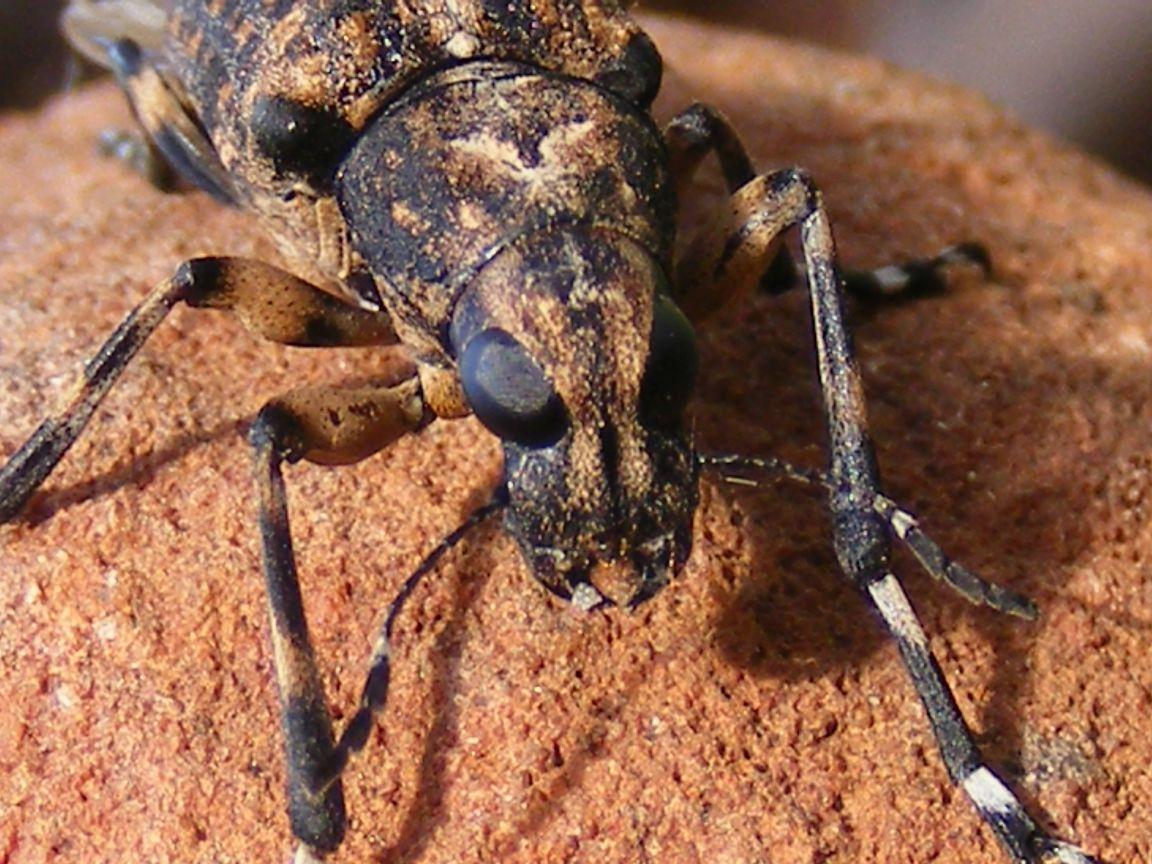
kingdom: Animalia
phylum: Arthropoda
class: Insecta
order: Coleoptera
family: Anthribidae
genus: Chirotenon
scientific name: Chirotenon longimanum
